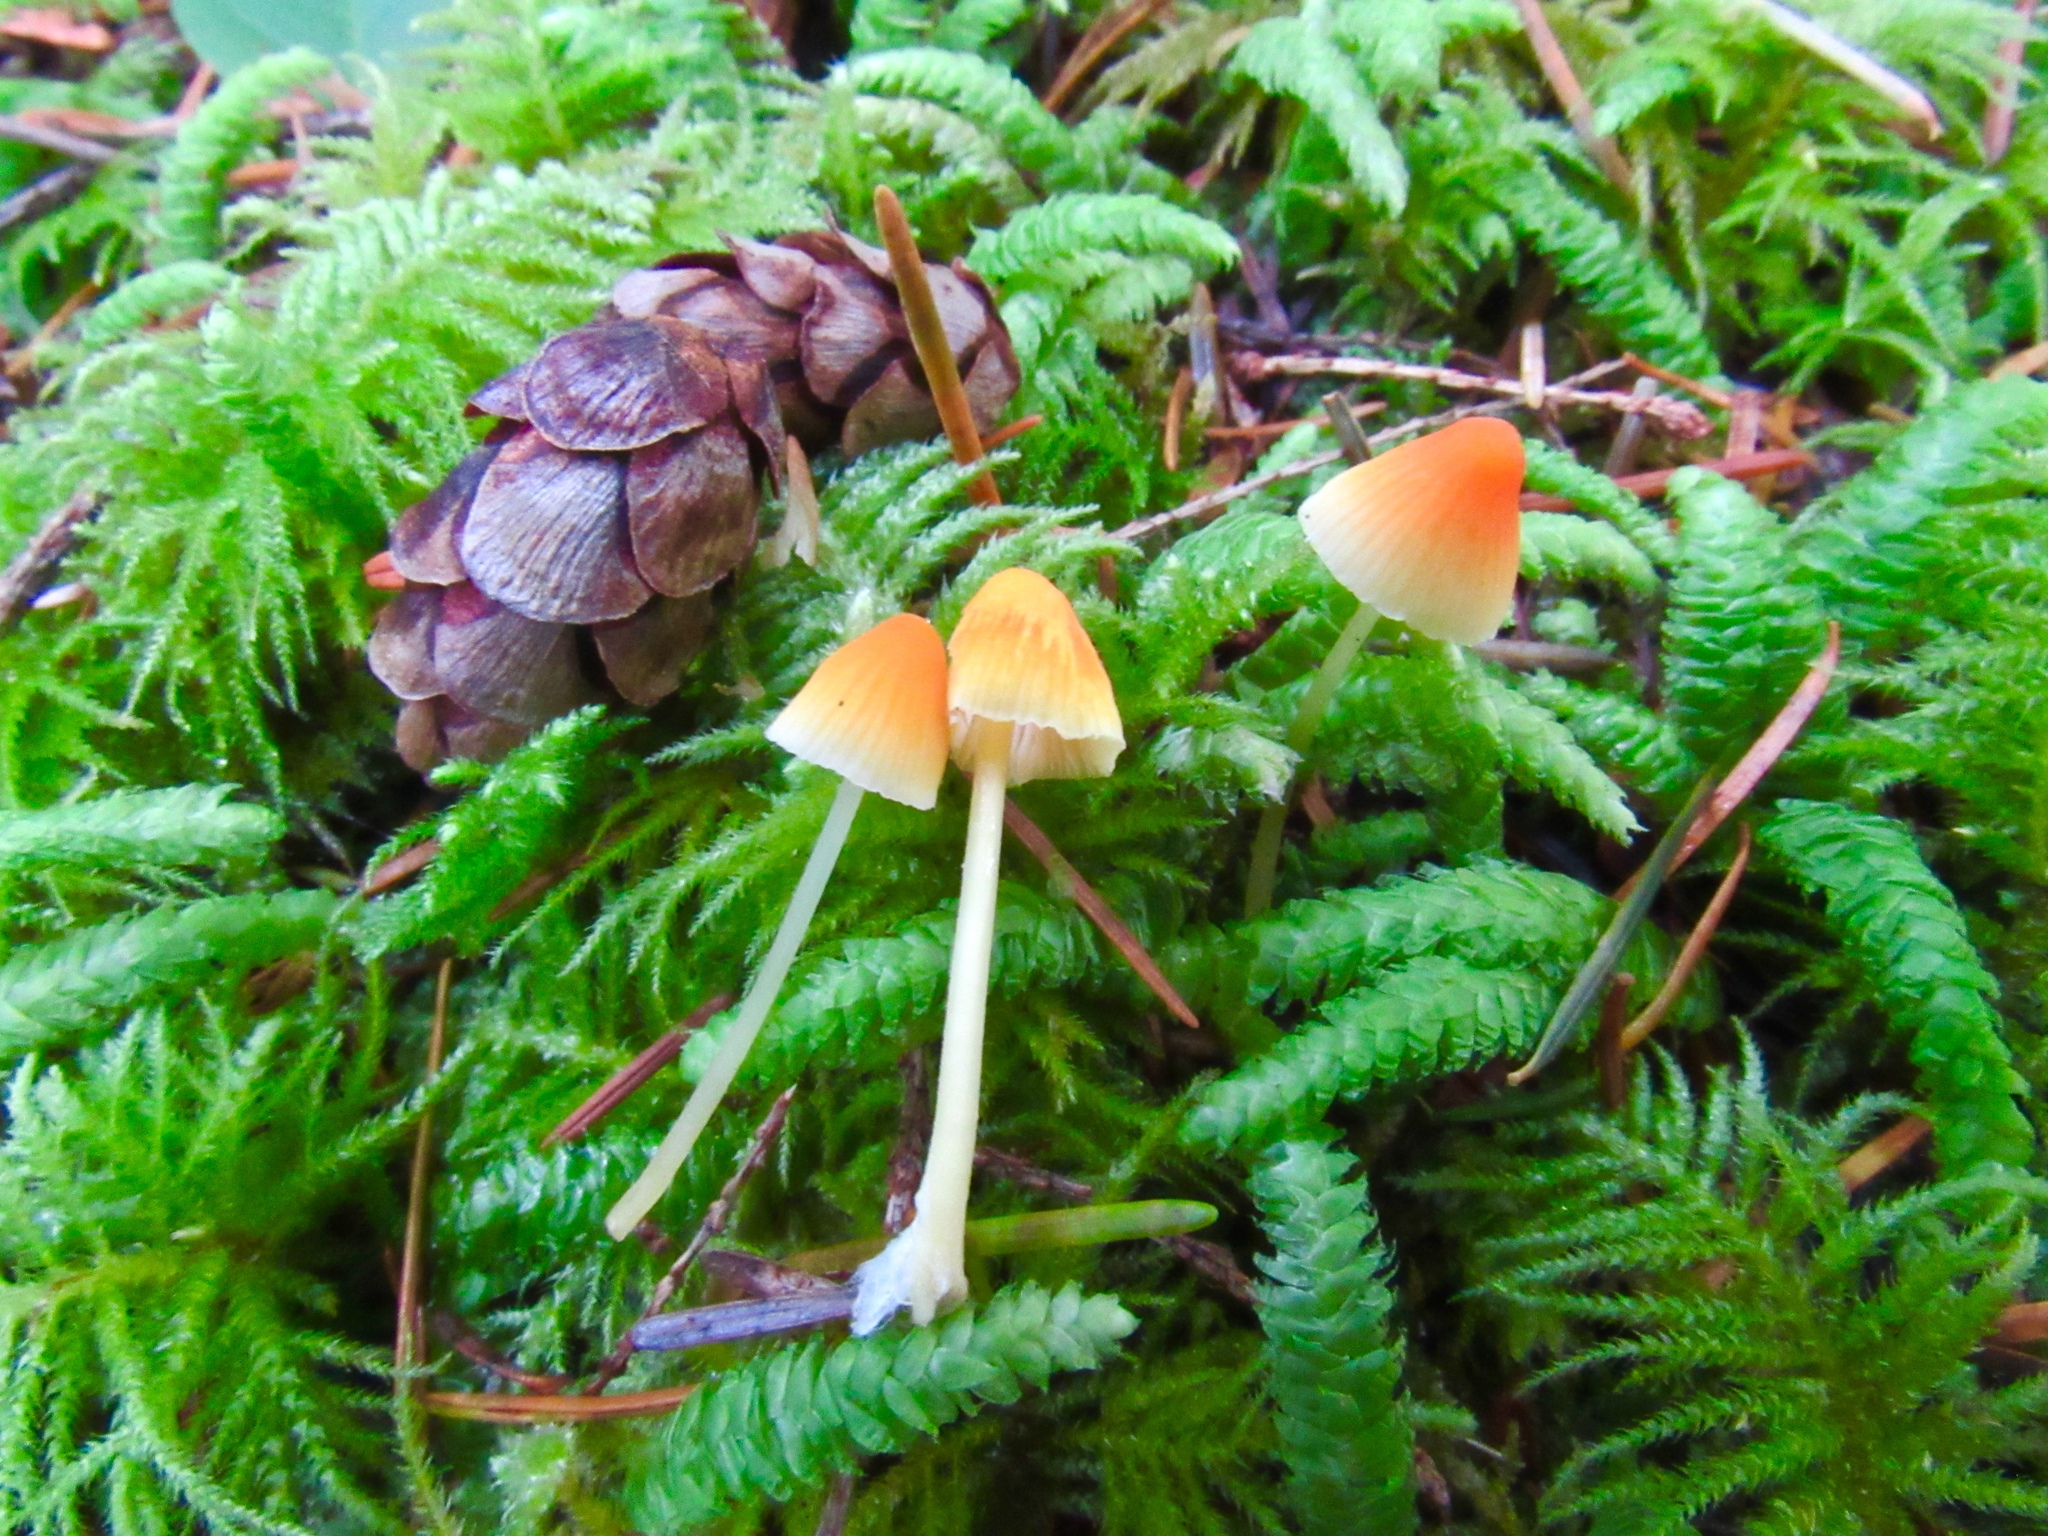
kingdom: Fungi
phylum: Basidiomycota
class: Agaricomycetes
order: Agaricales
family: Mycenaceae
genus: Atheniella
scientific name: Atheniella aurantiidisca
